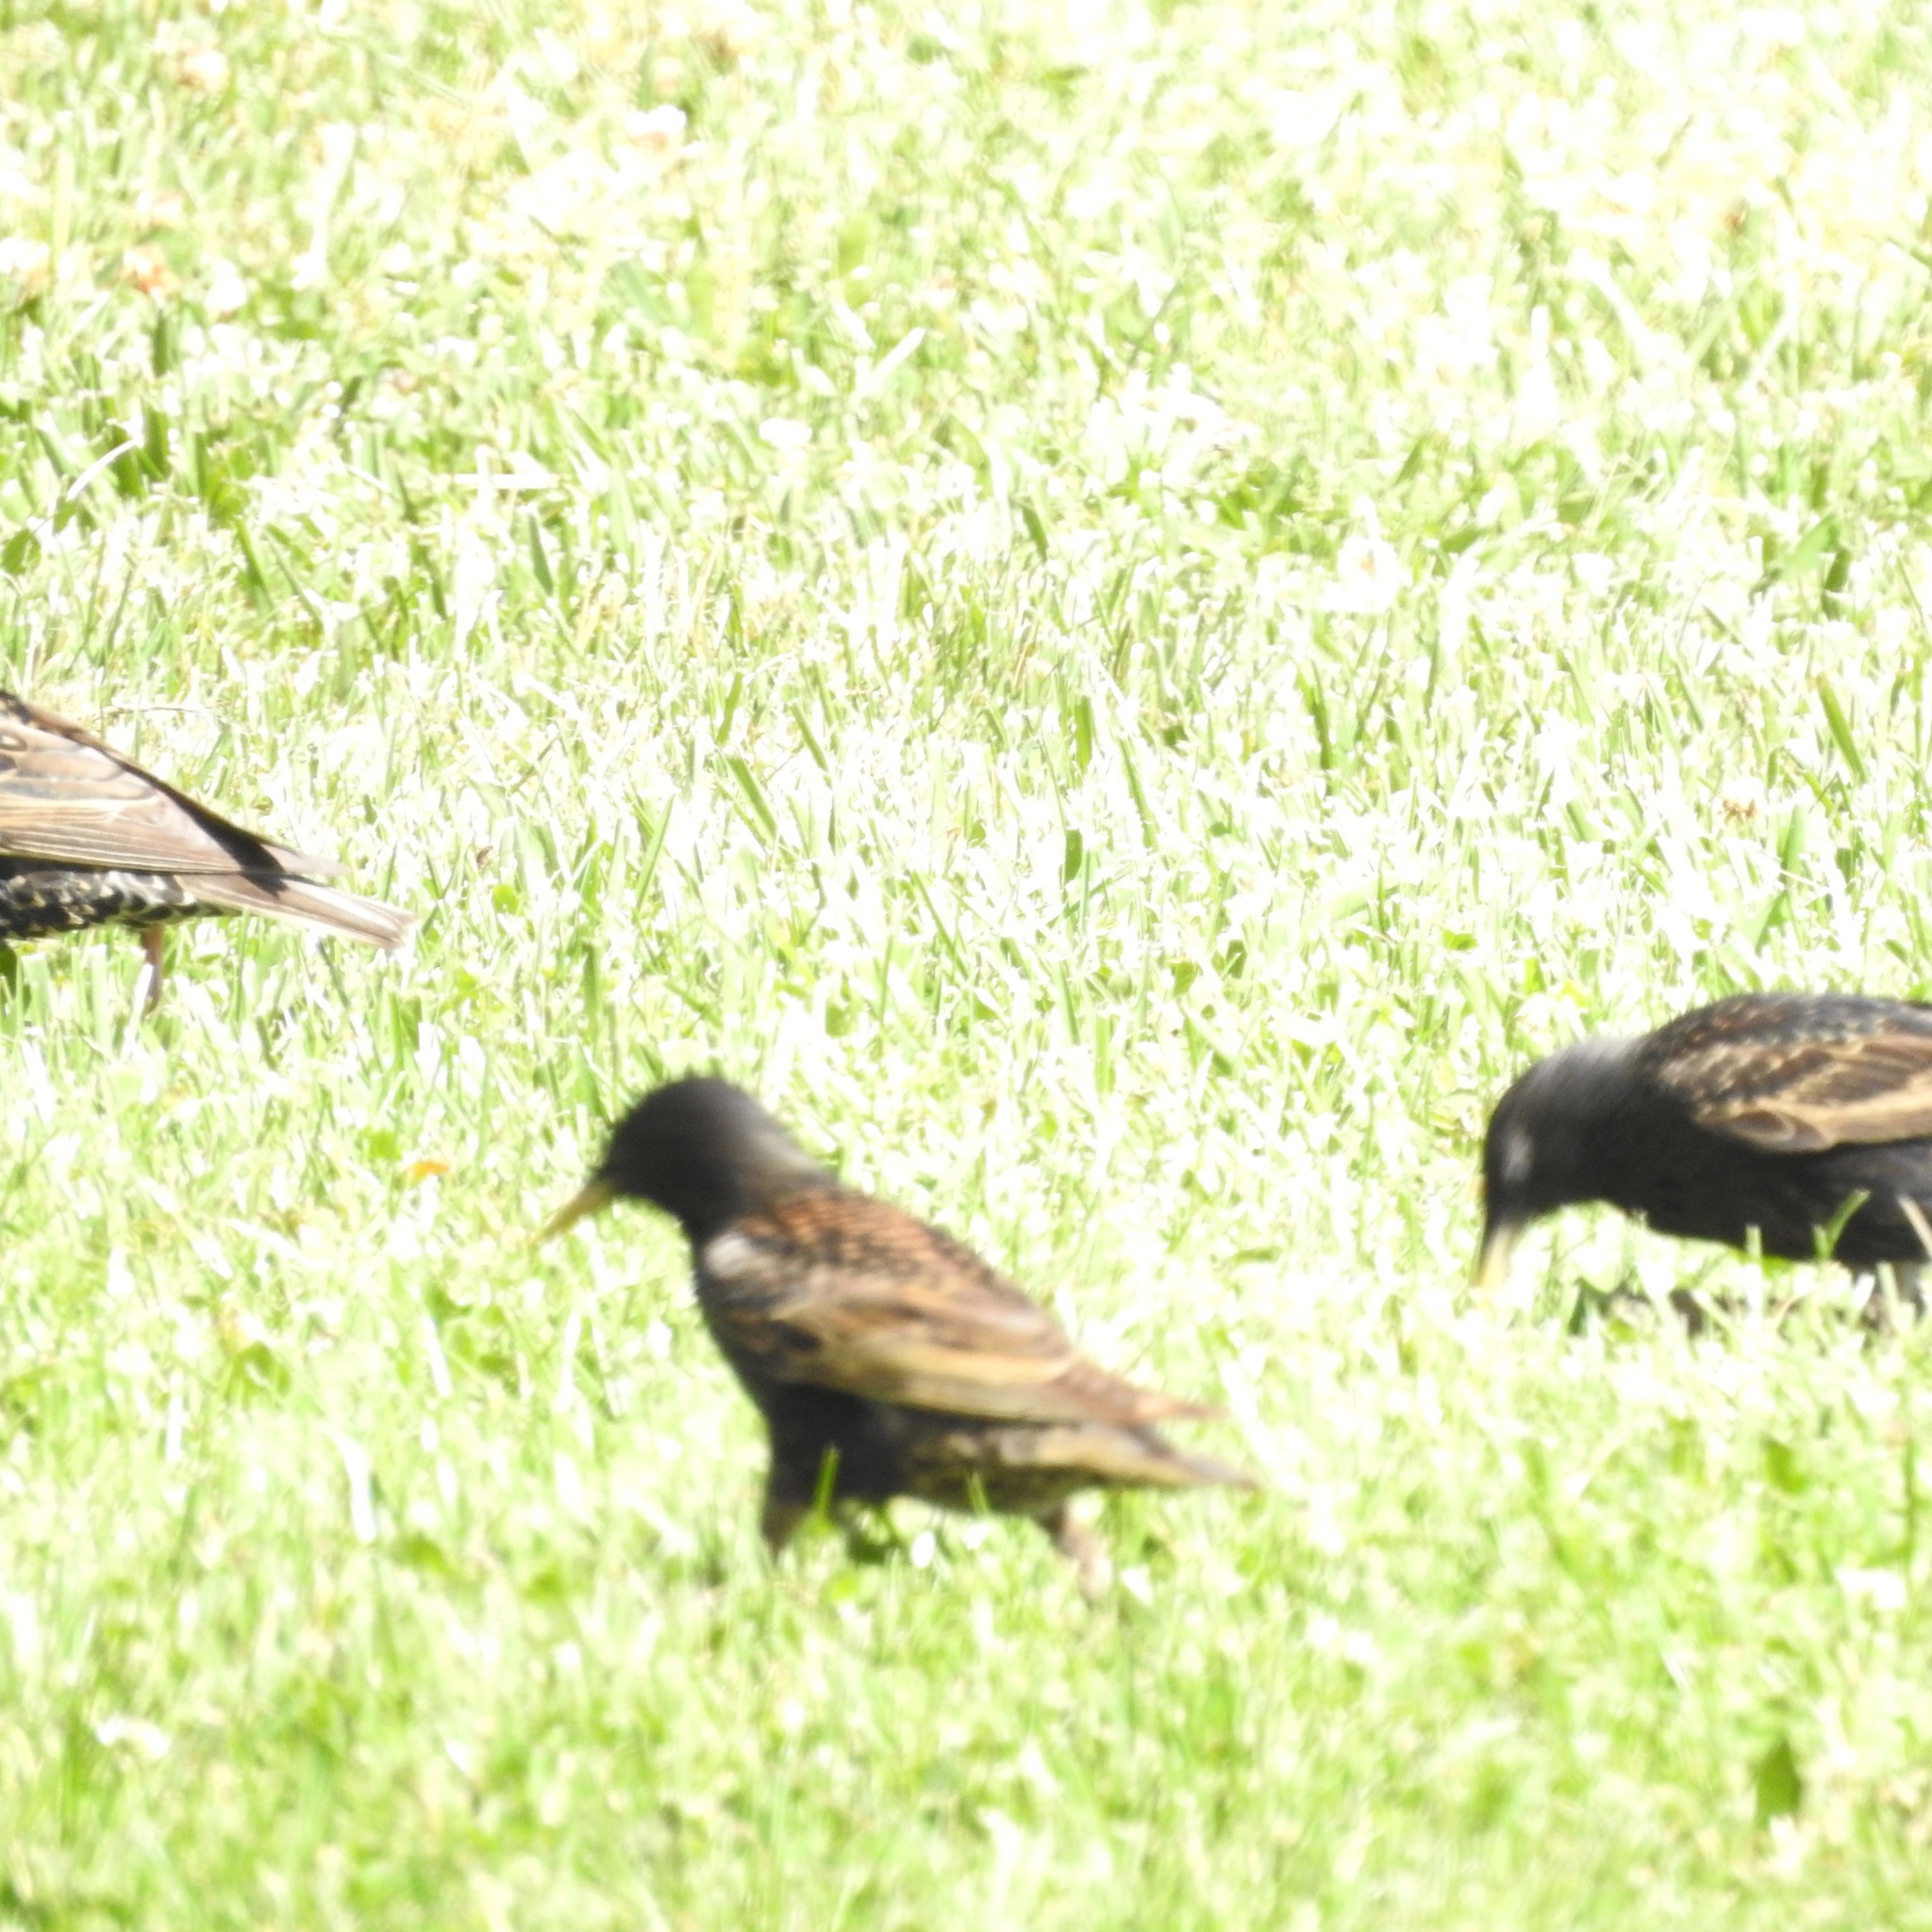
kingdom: Animalia
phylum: Chordata
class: Aves
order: Passeriformes
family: Sturnidae
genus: Sturnus
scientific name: Sturnus vulgaris
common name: Common starling
